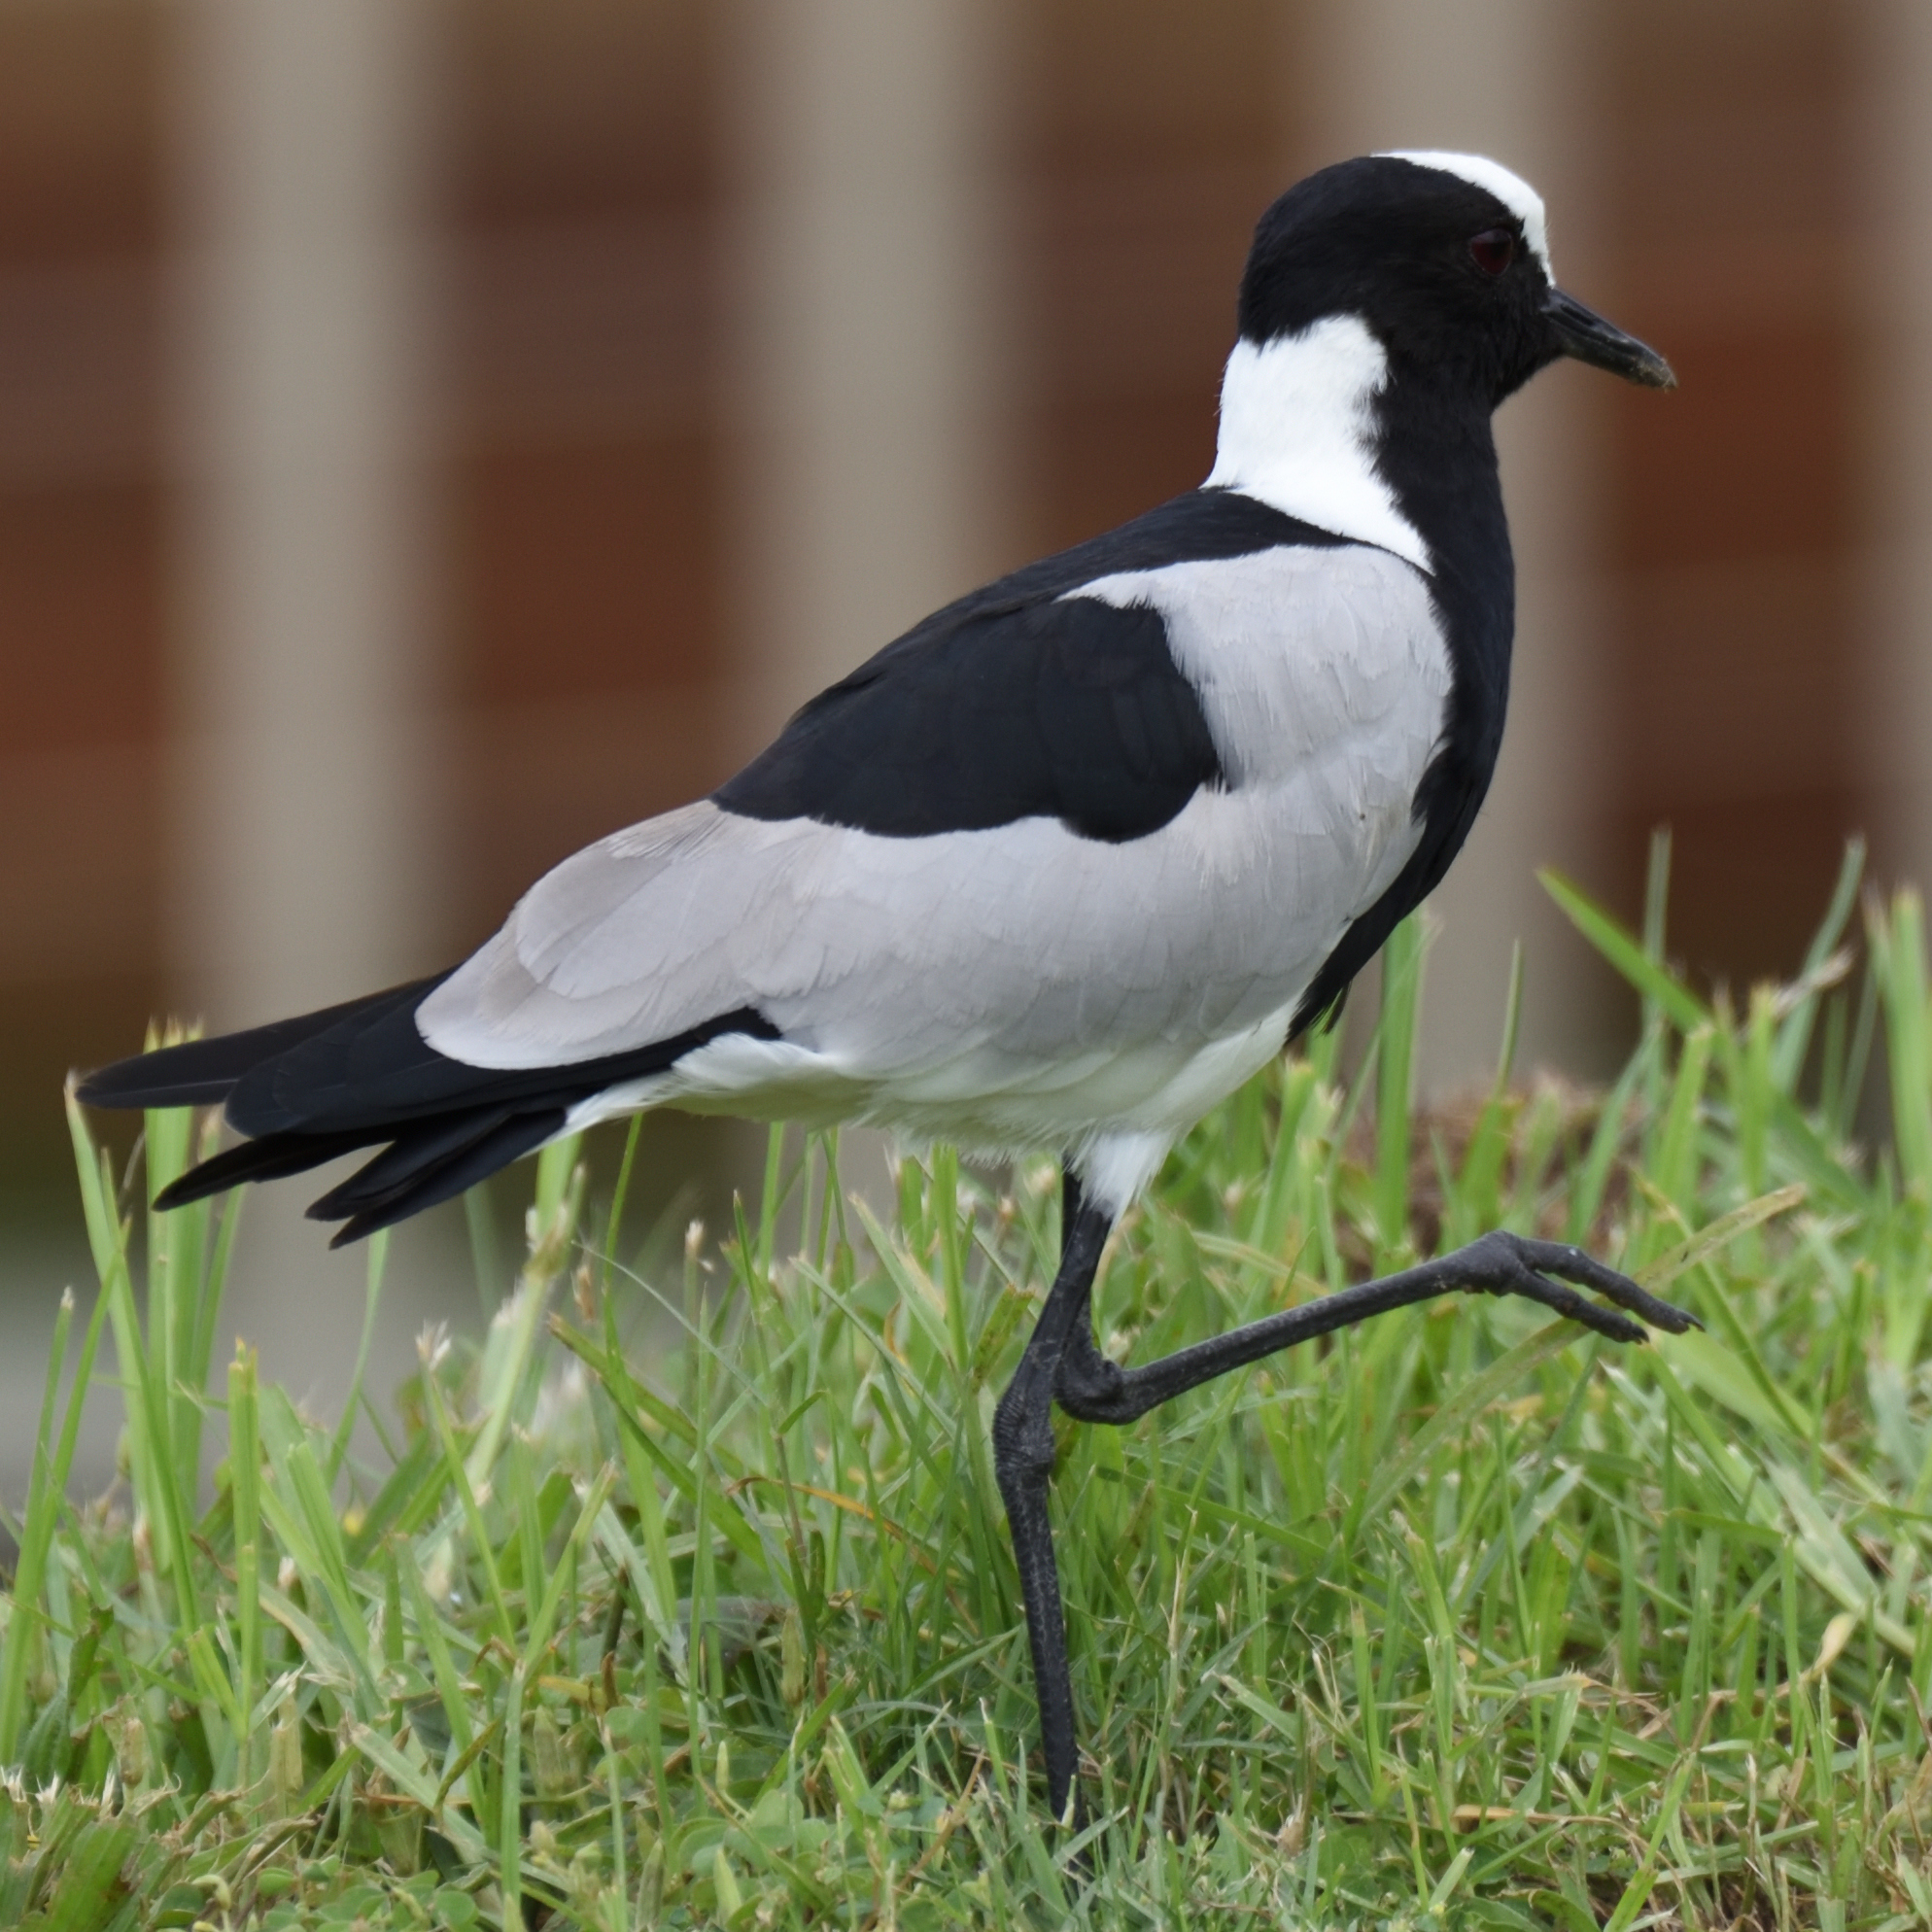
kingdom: Animalia
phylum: Chordata
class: Aves
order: Charadriiformes
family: Charadriidae
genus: Vanellus
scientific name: Vanellus armatus
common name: Blacksmith lapwing
